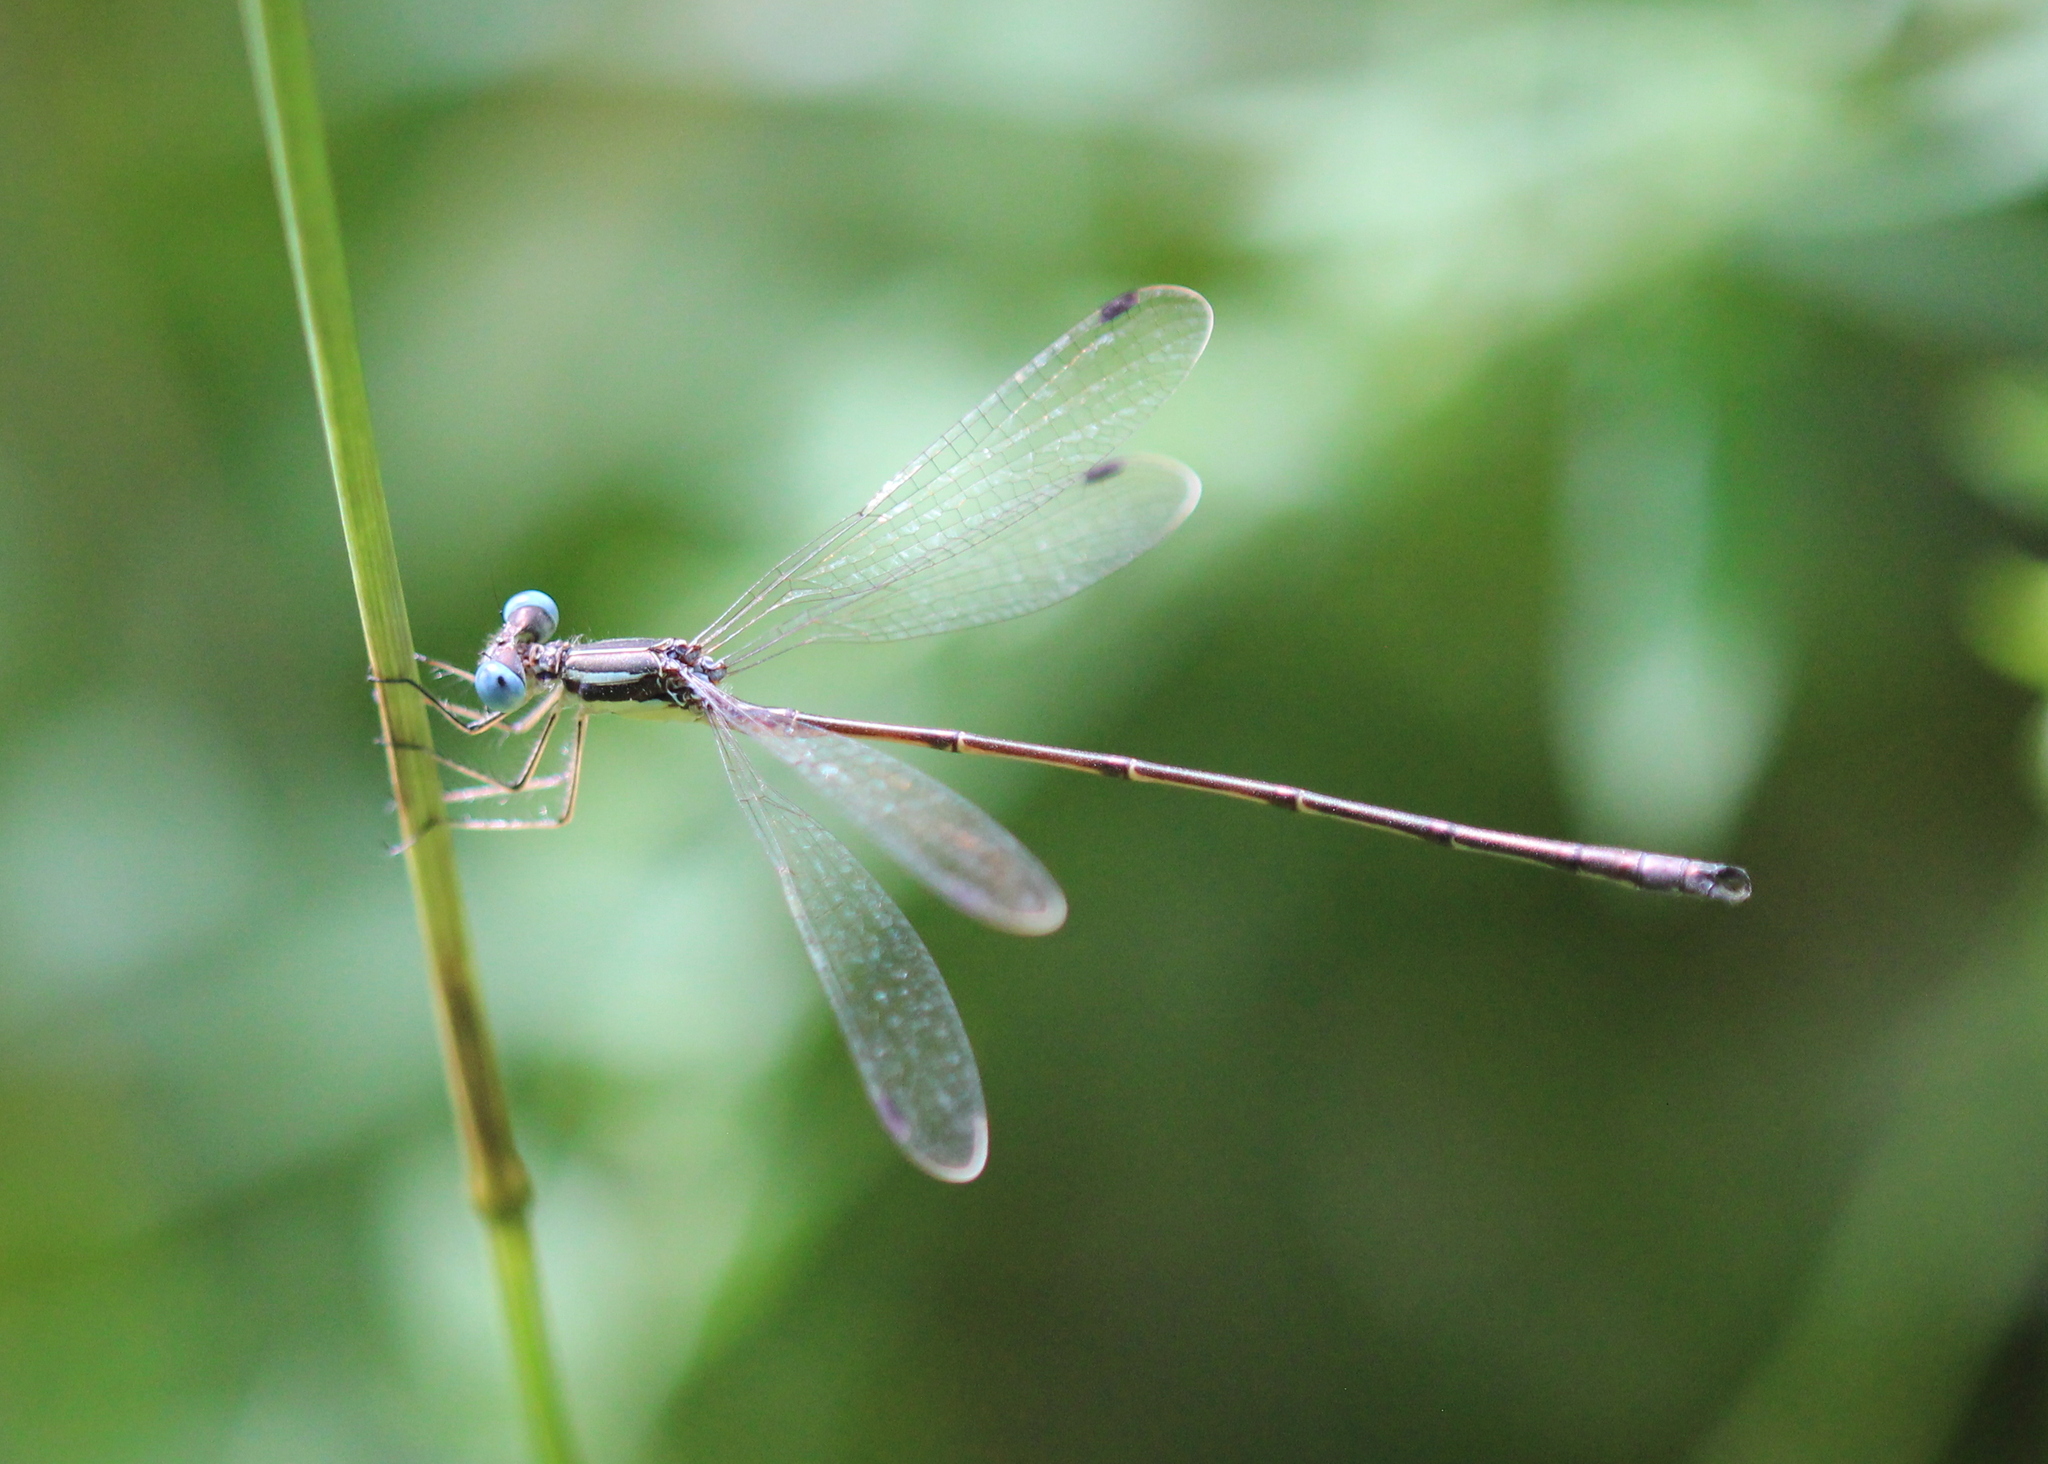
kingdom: Animalia
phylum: Arthropoda
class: Insecta
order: Odonata
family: Lestidae
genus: Lestes
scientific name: Lestes rectangularis
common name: Slender spreadwing
